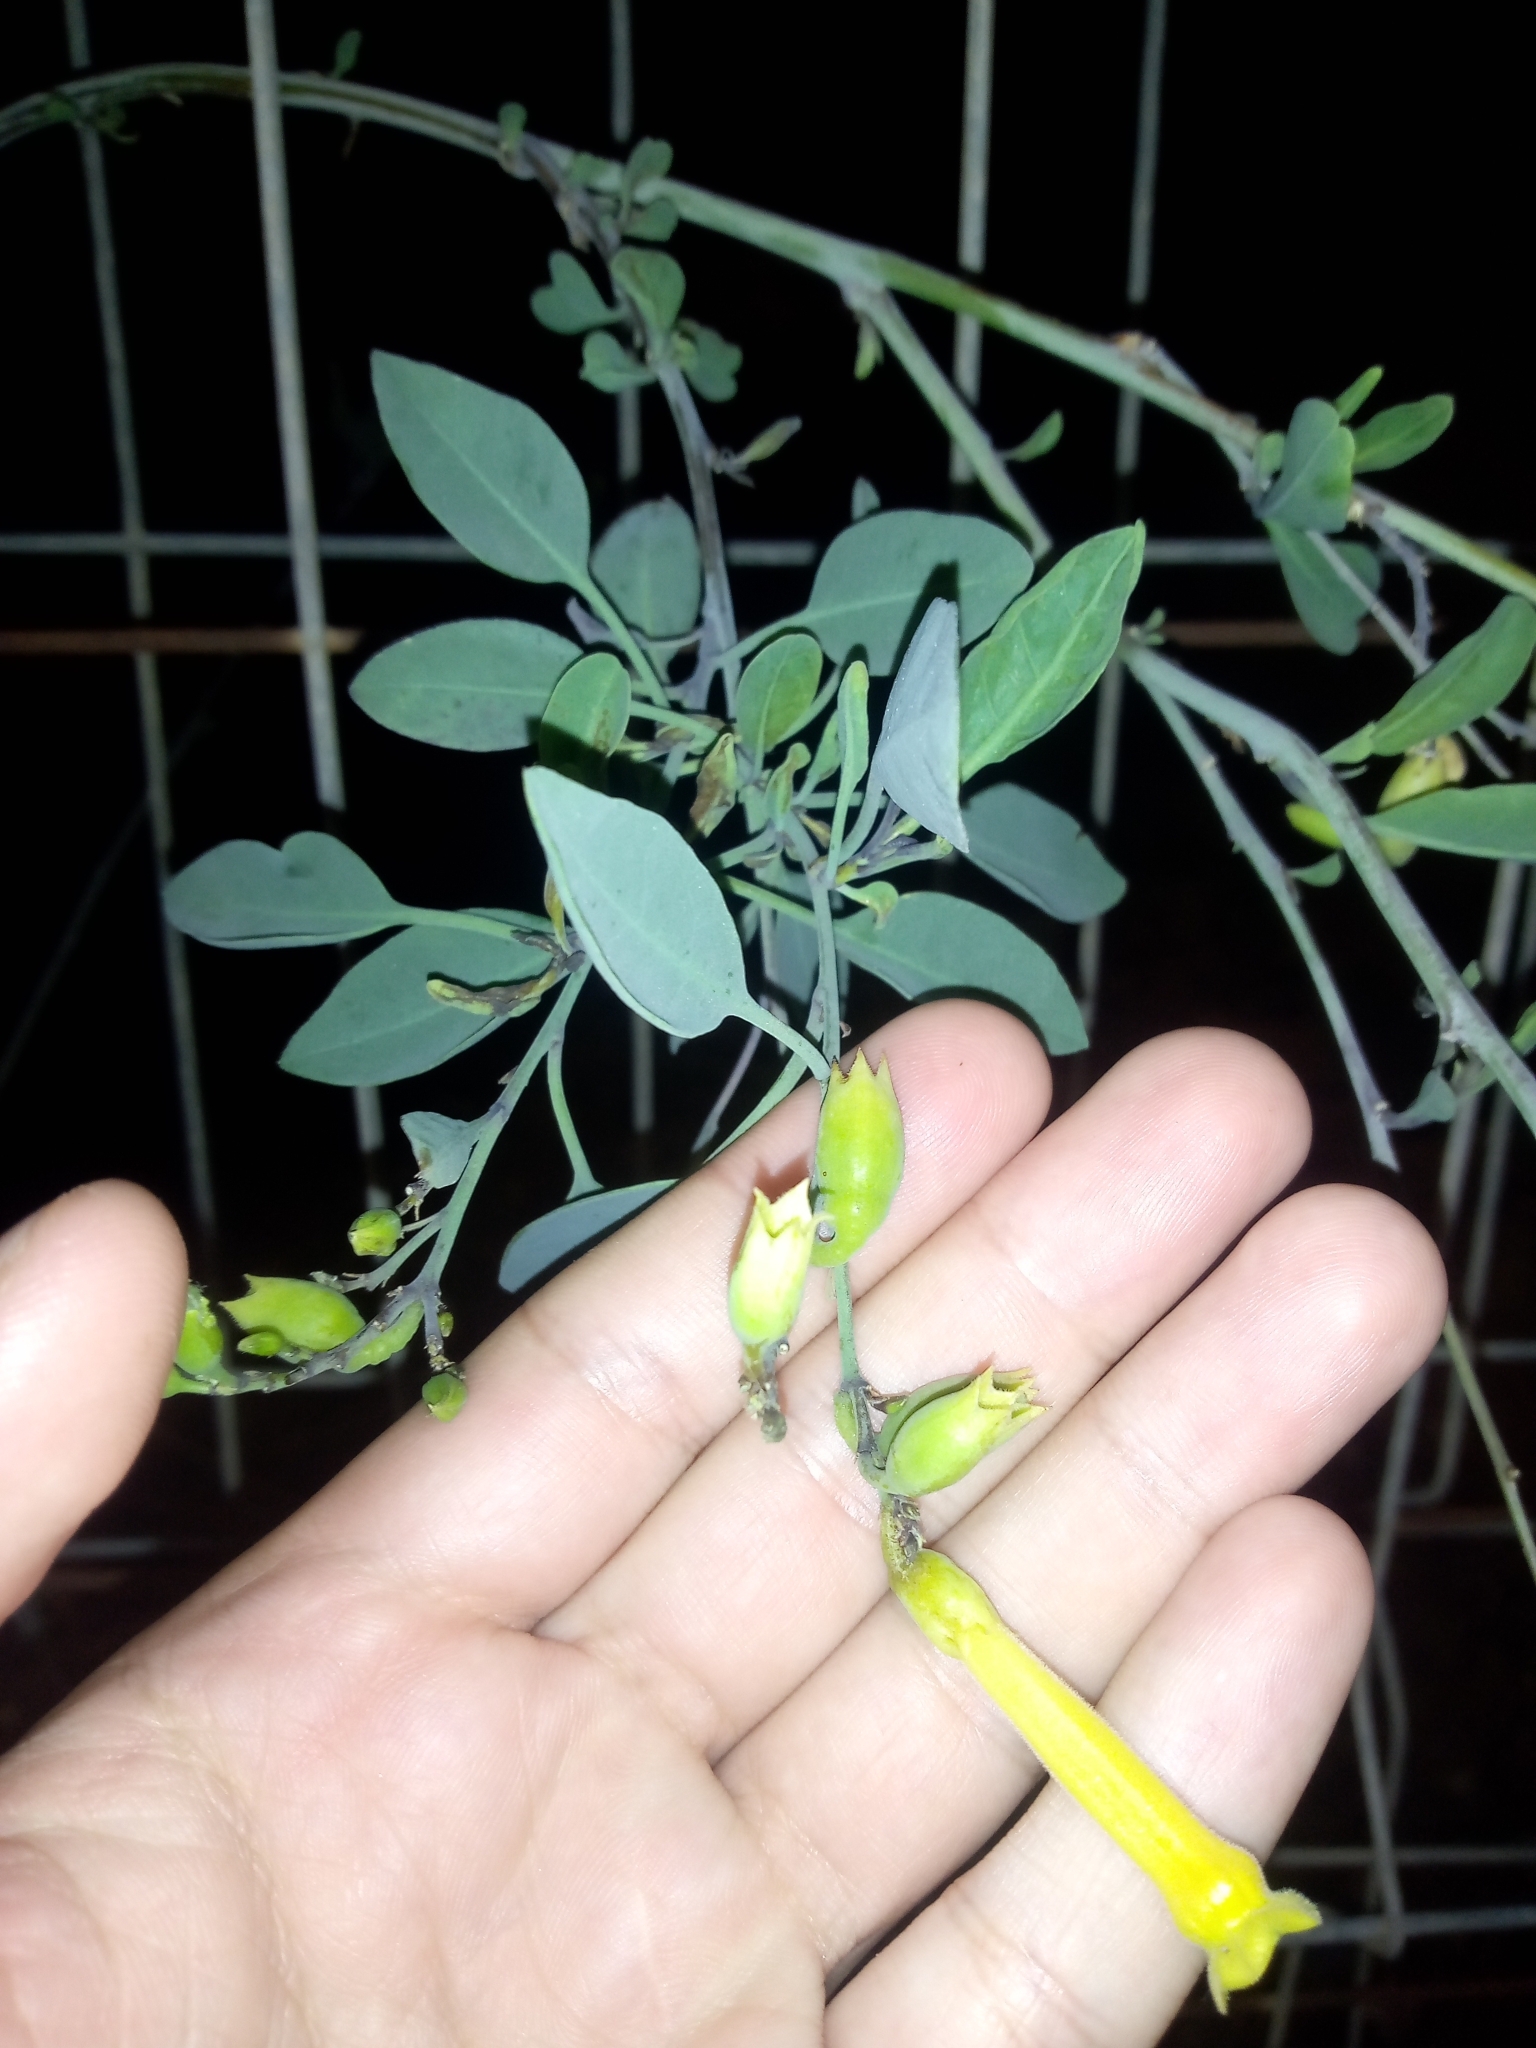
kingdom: Plantae
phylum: Tracheophyta
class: Magnoliopsida
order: Solanales
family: Solanaceae
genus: Nicotiana
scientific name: Nicotiana glauca
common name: Tree tobacco
